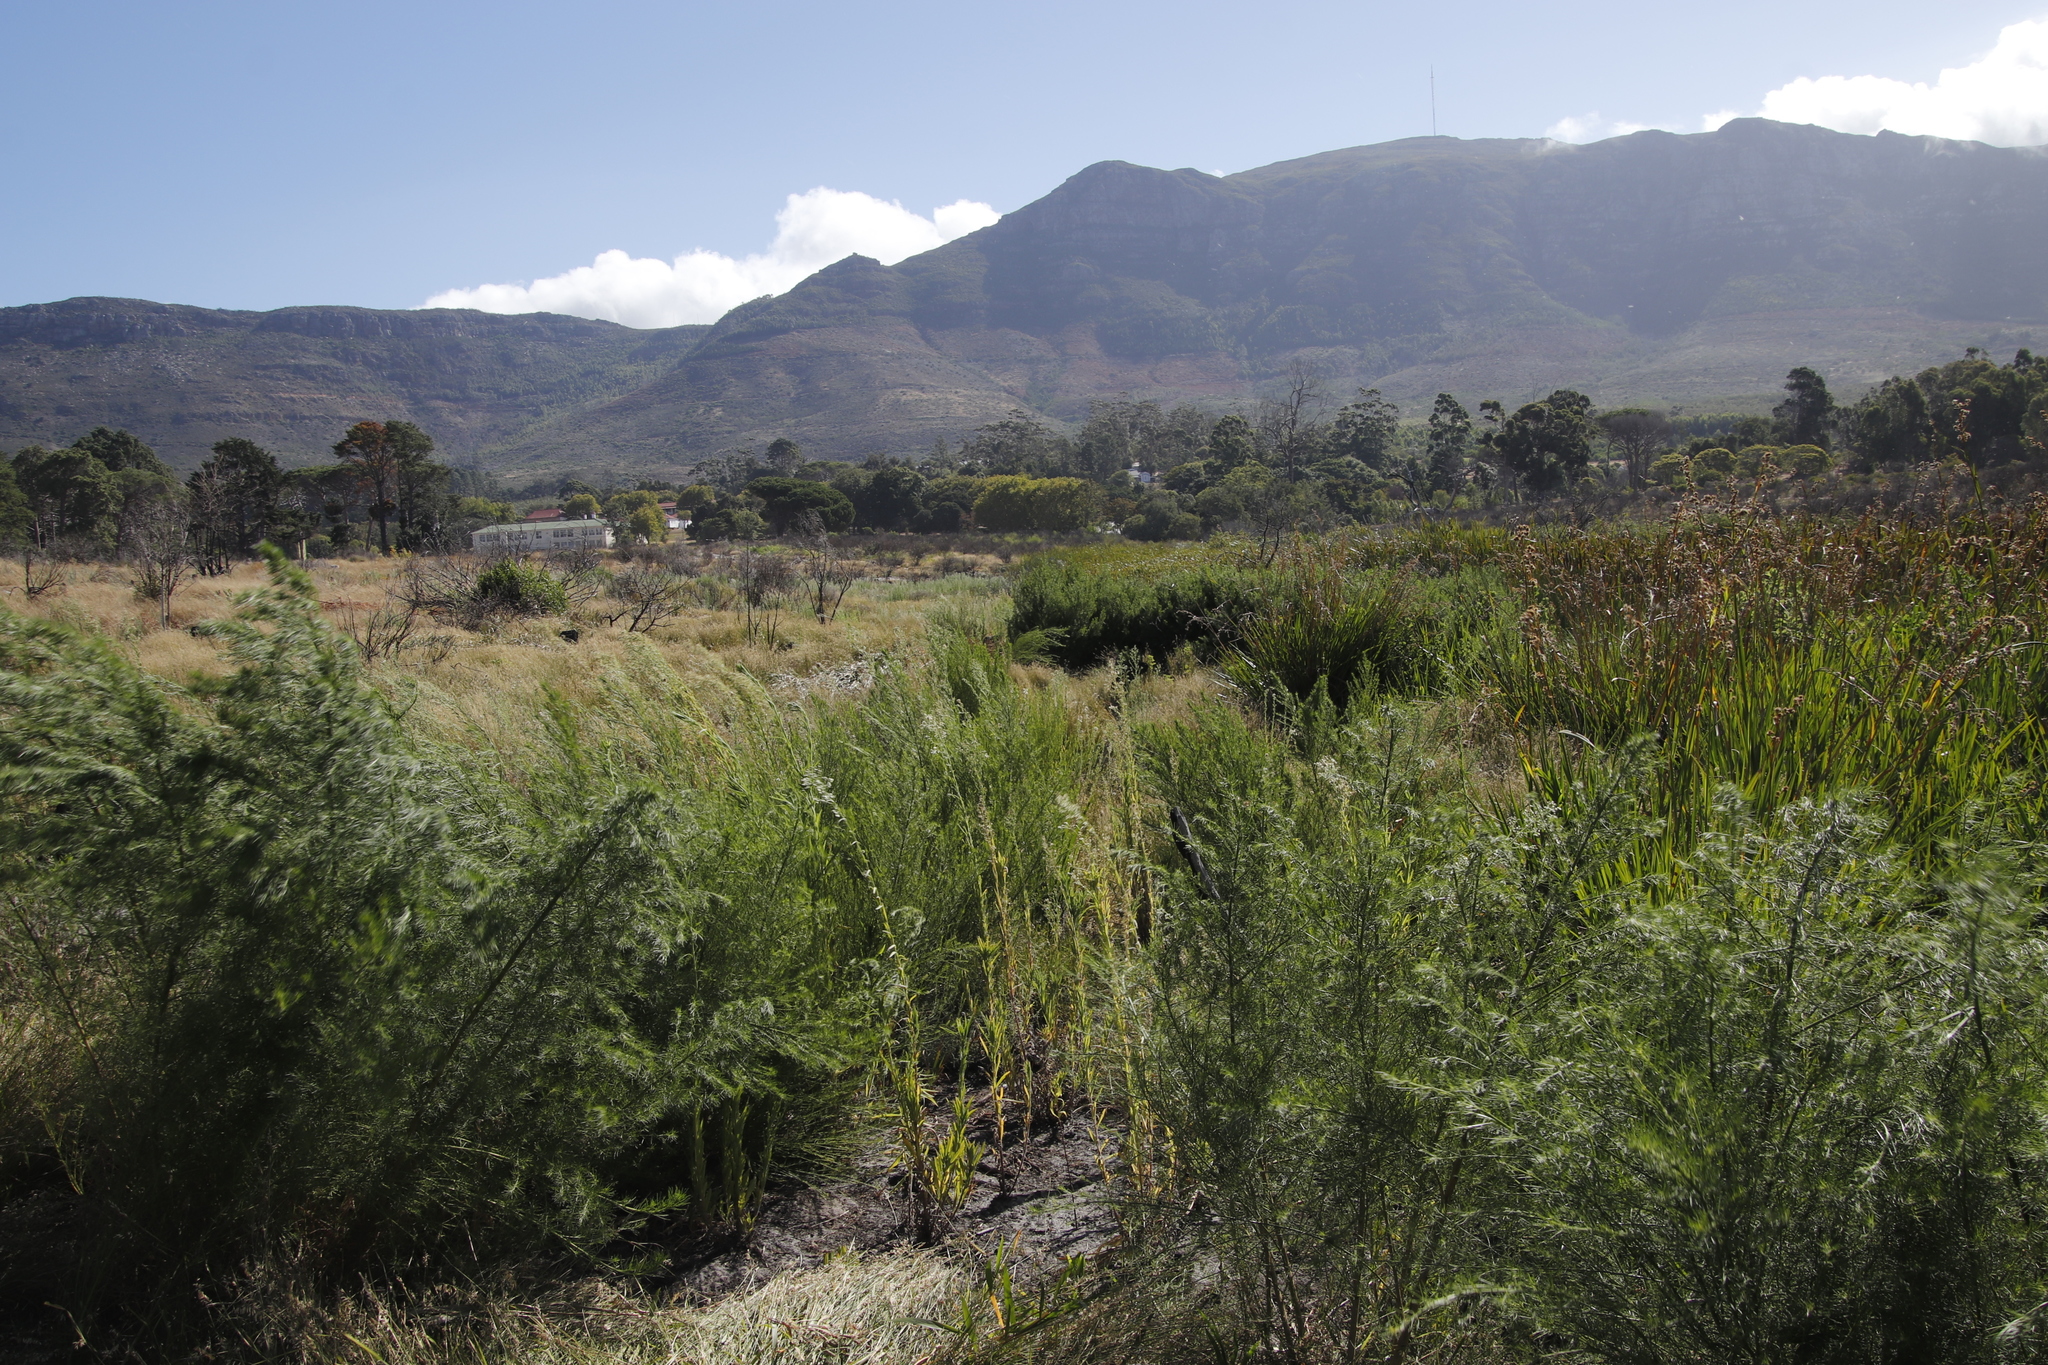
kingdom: Plantae
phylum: Tracheophyta
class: Magnoliopsida
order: Fabales
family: Fabaceae
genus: Psoralea
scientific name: Psoralea pinnata
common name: African scurfpea
